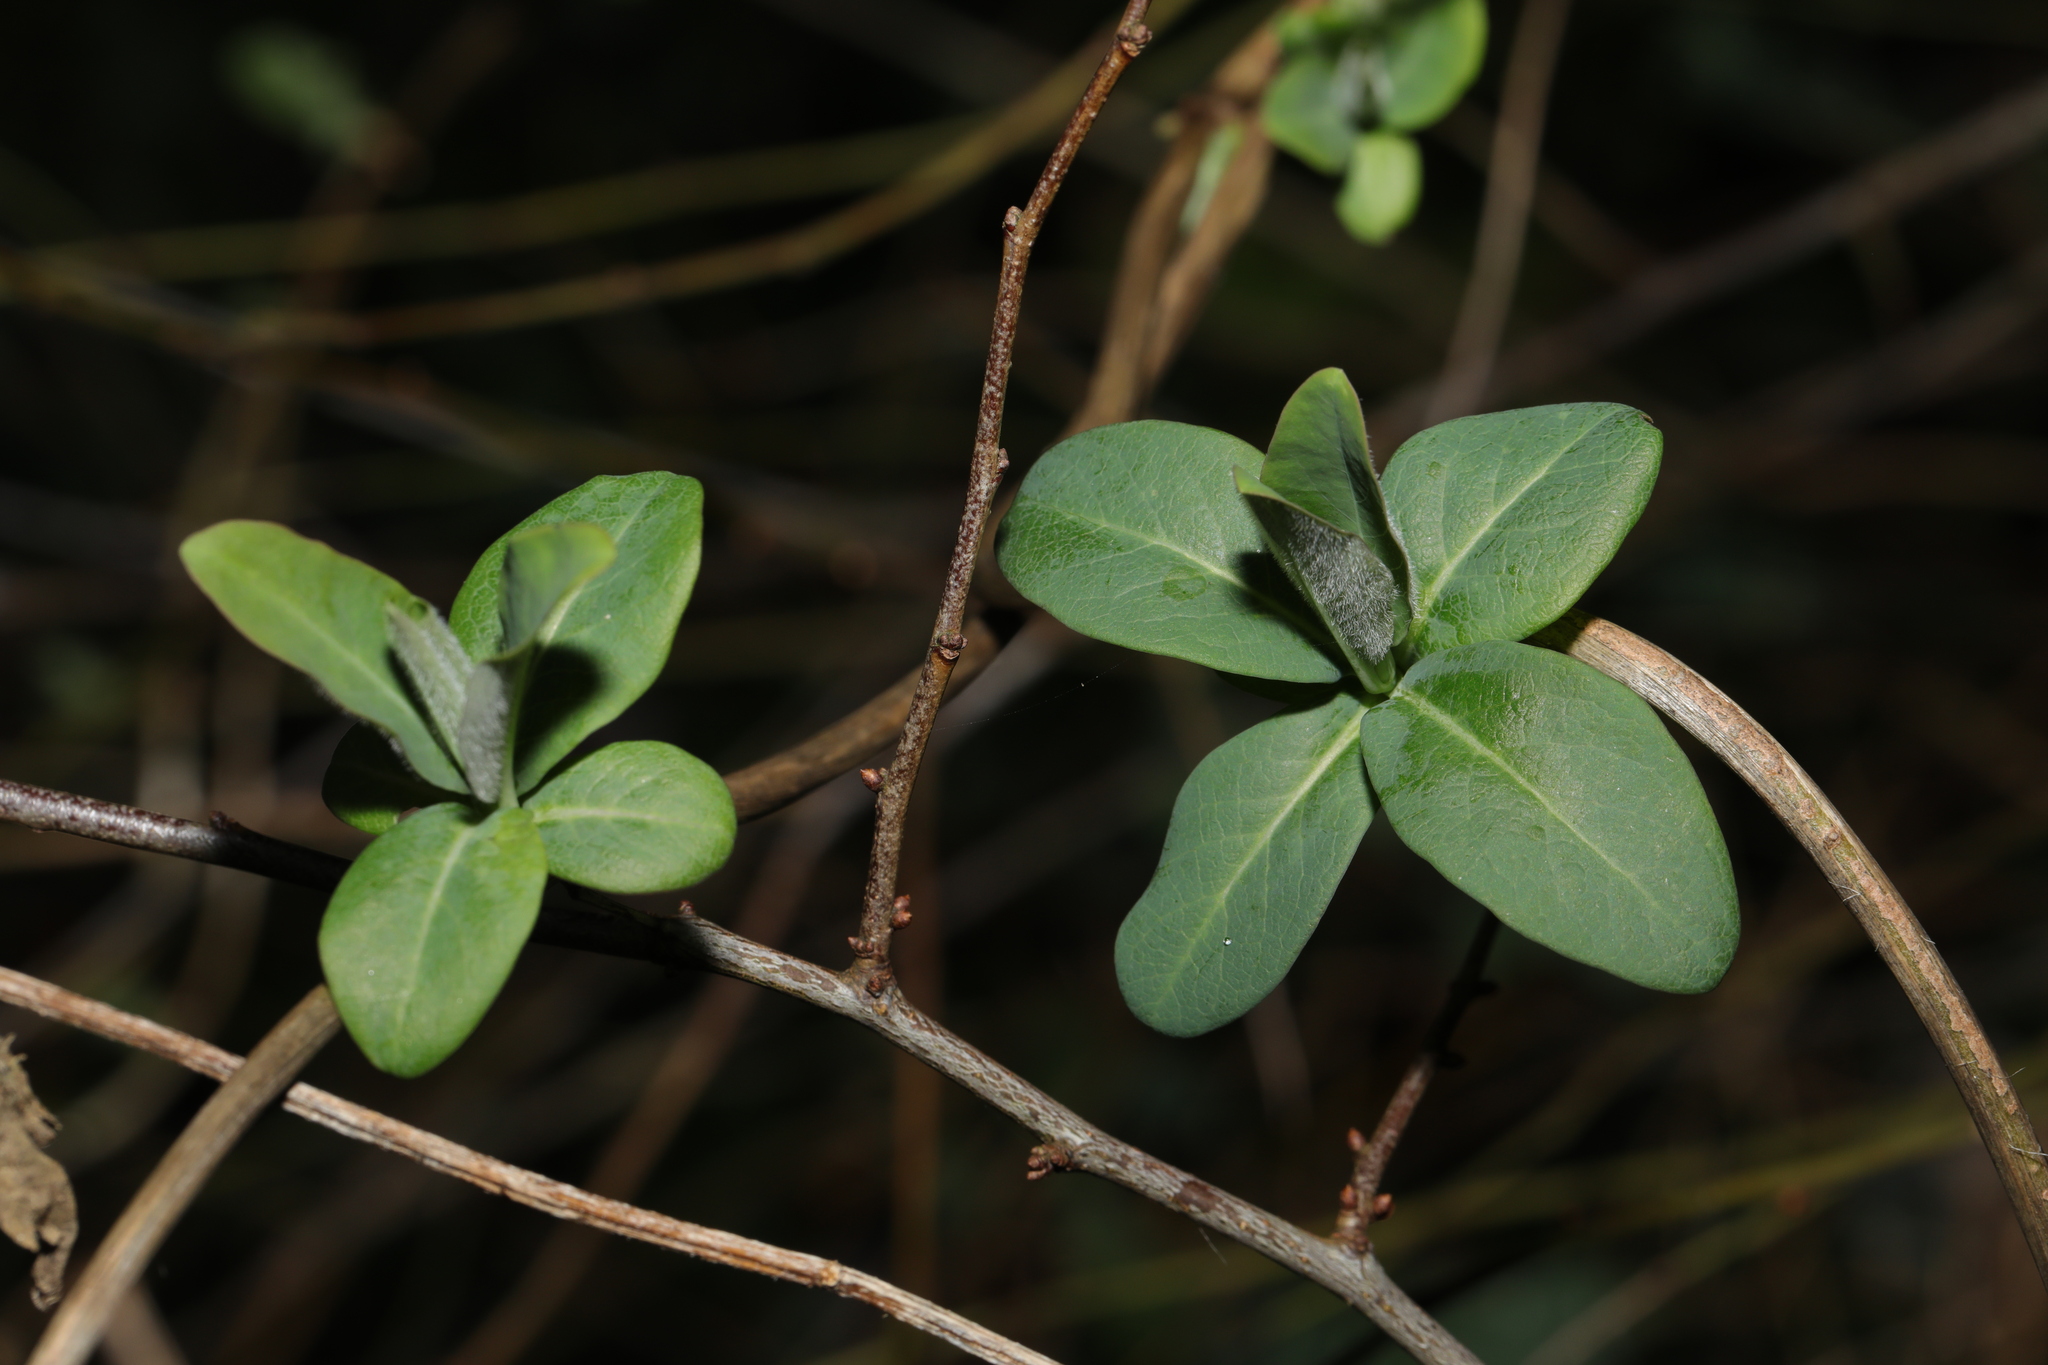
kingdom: Plantae
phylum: Tracheophyta
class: Magnoliopsida
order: Dipsacales
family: Caprifoliaceae
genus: Lonicera
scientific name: Lonicera periclymenum
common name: European honeysuckle
